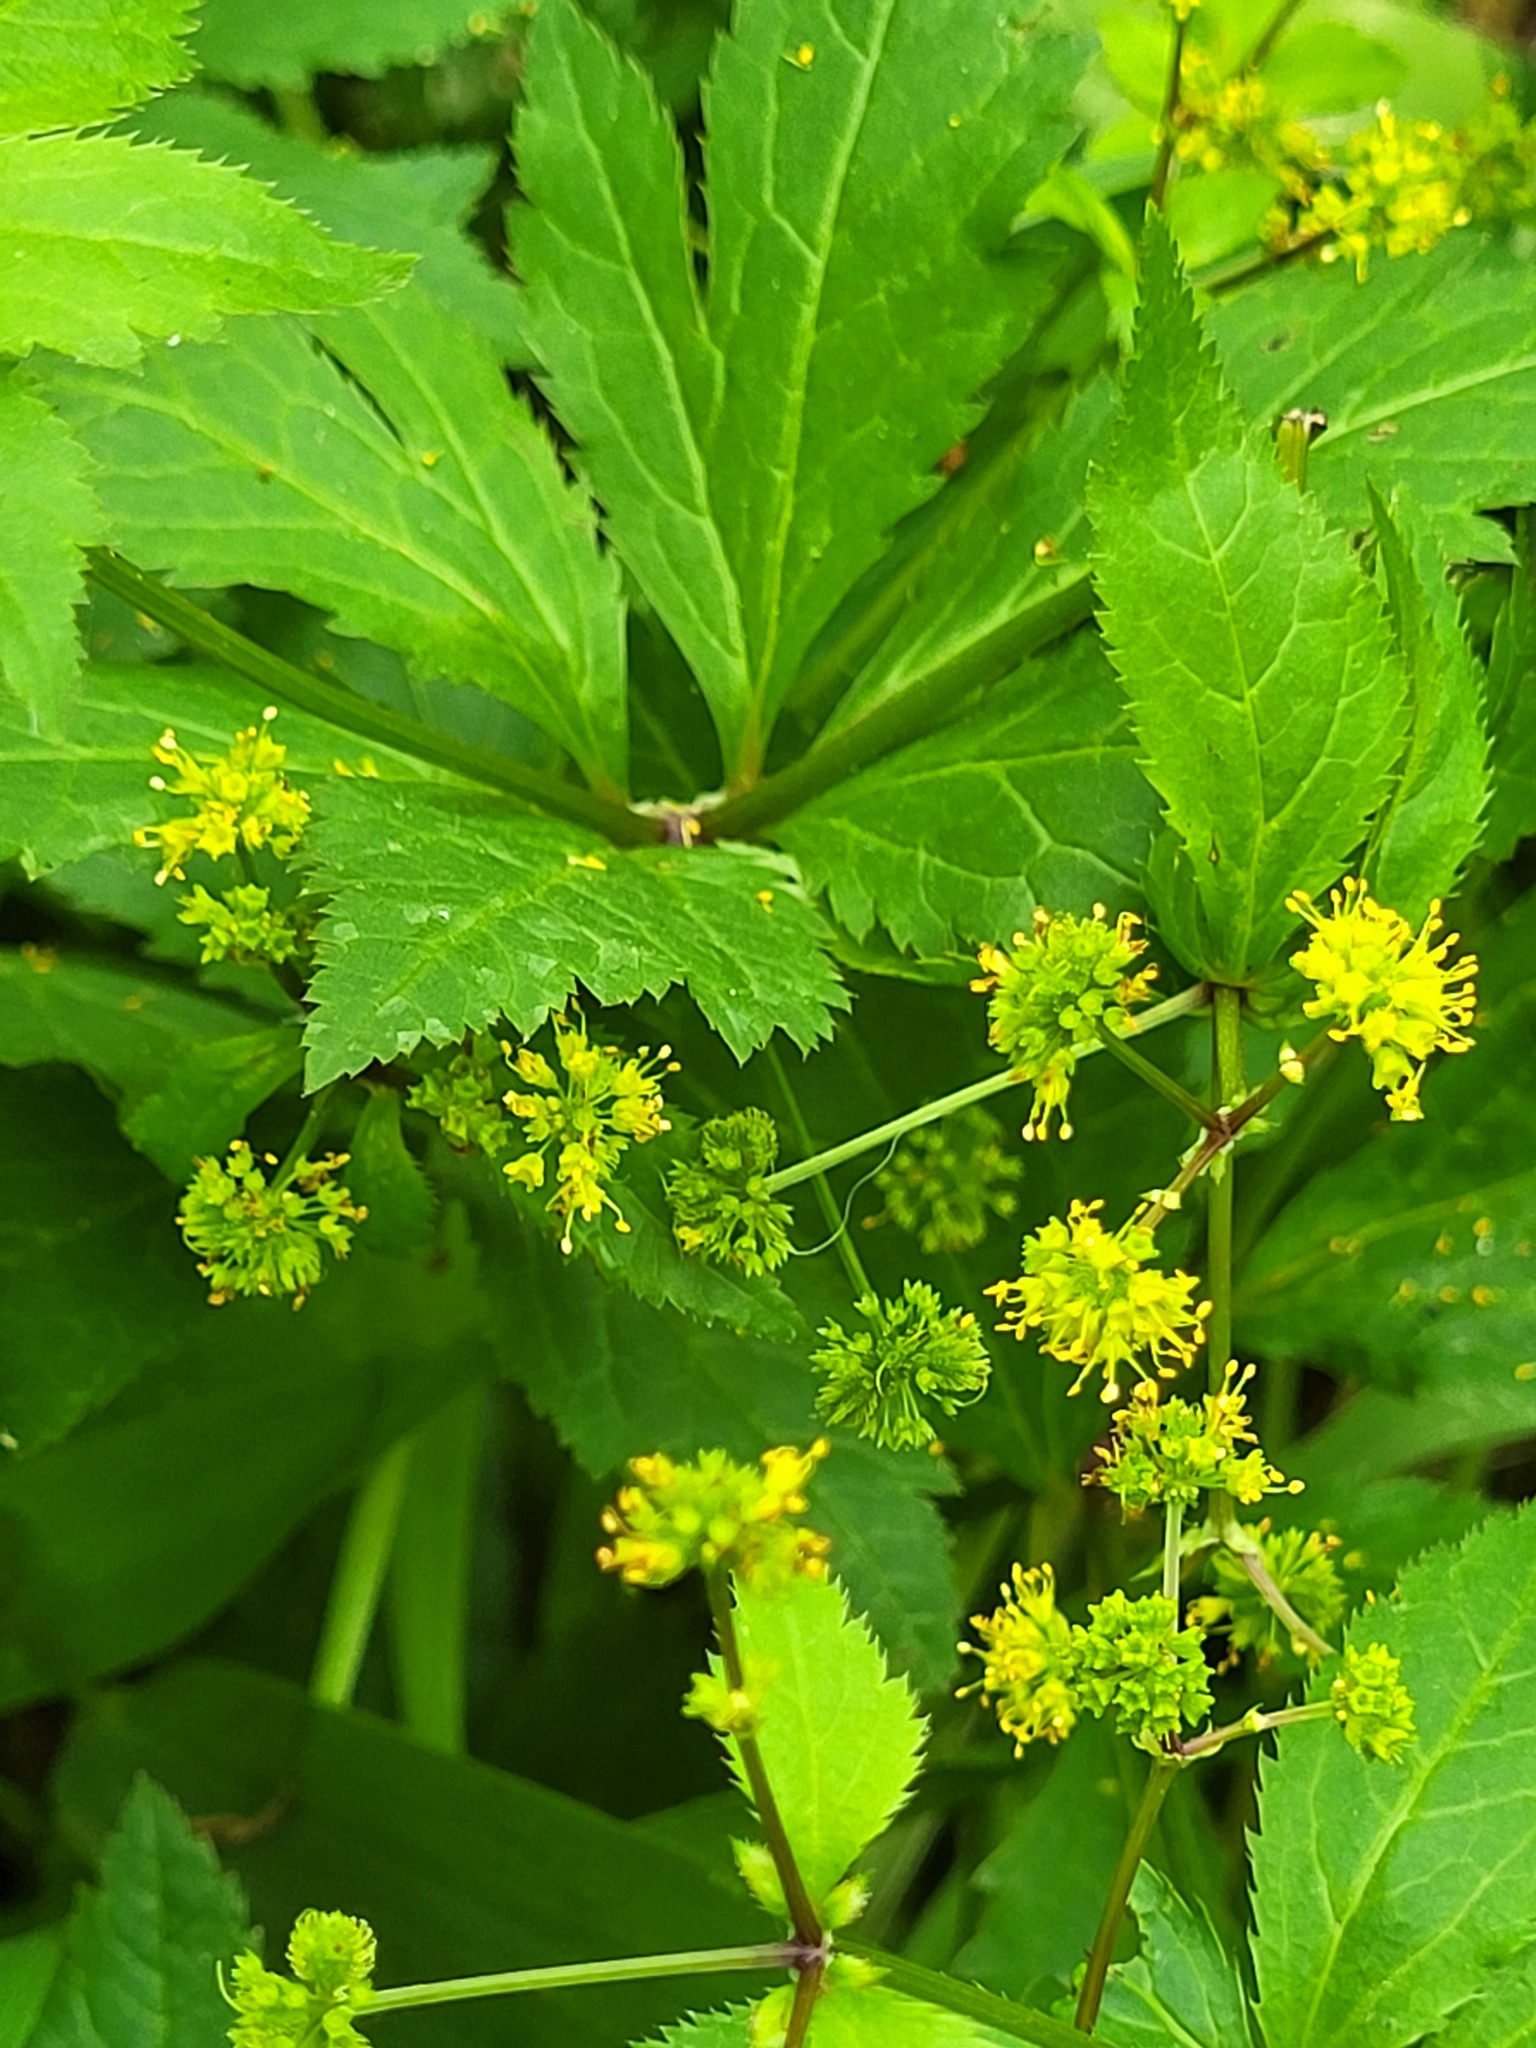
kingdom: Plantae
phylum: Tracheophyta
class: Magnoliopsida
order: Apiales
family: Apiaceae
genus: Sanicula
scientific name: Sanicula odorata
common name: Cluster sanicle
